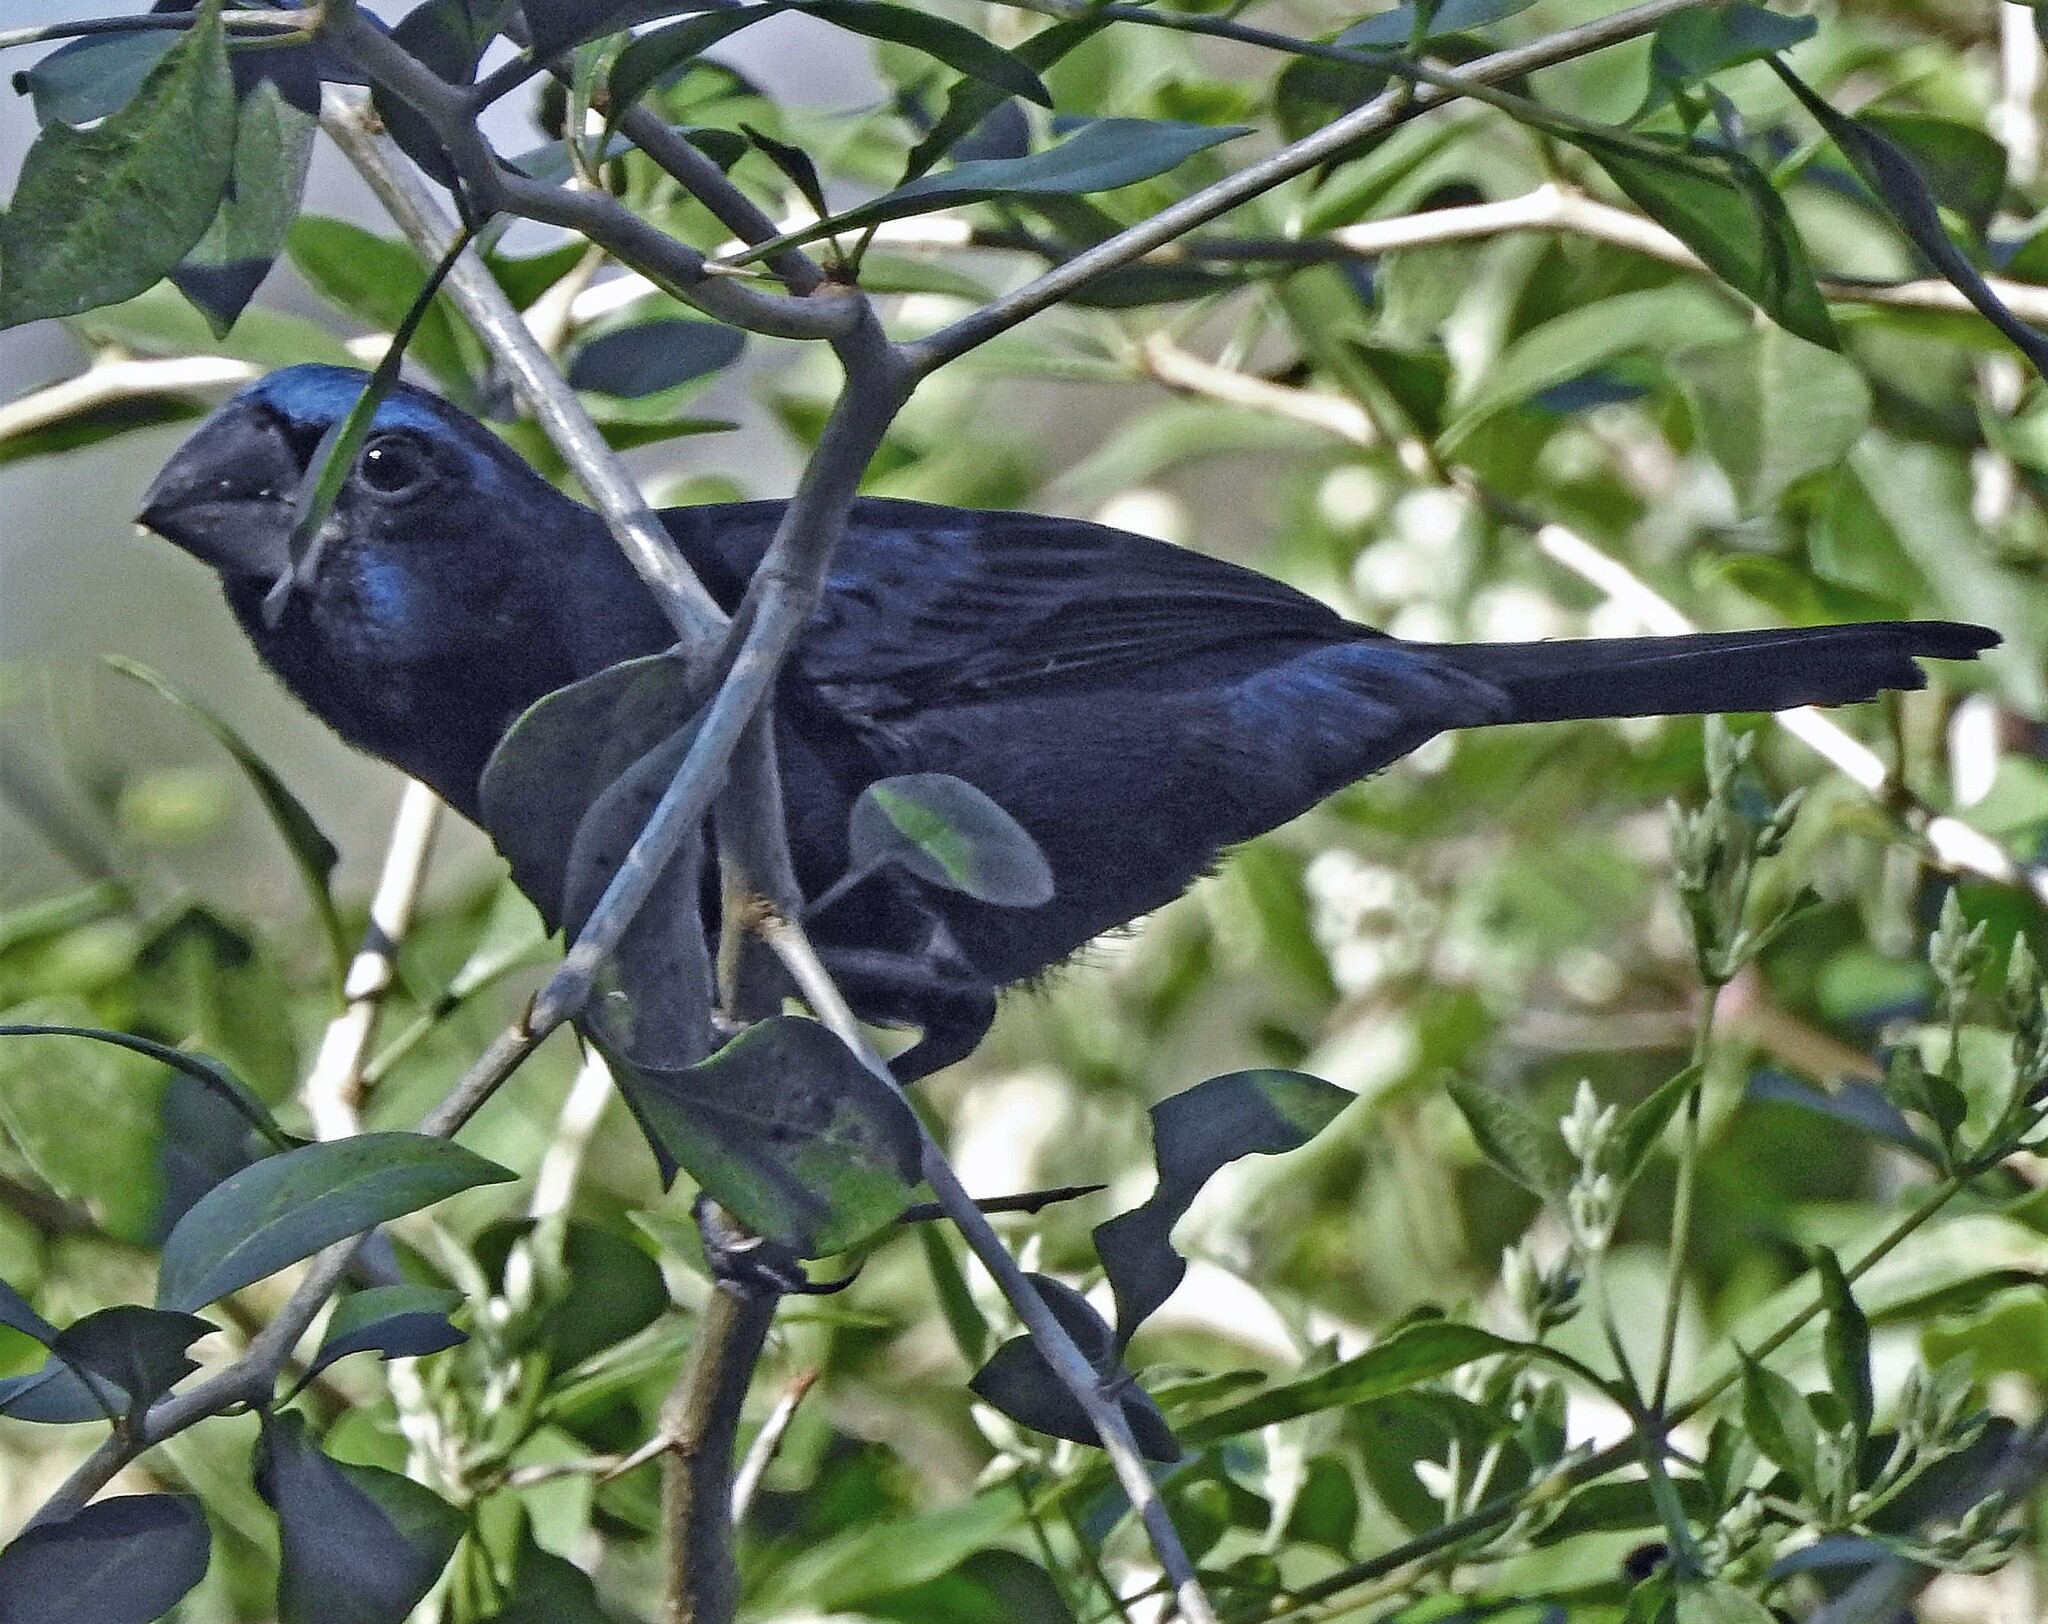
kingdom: Animalia
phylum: Chordata
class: Aves
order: Passeriformes
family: Cardinalidae
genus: Cyanoloxia
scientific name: Cyanoloxia brissonii
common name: Ultramarine grosbeak
